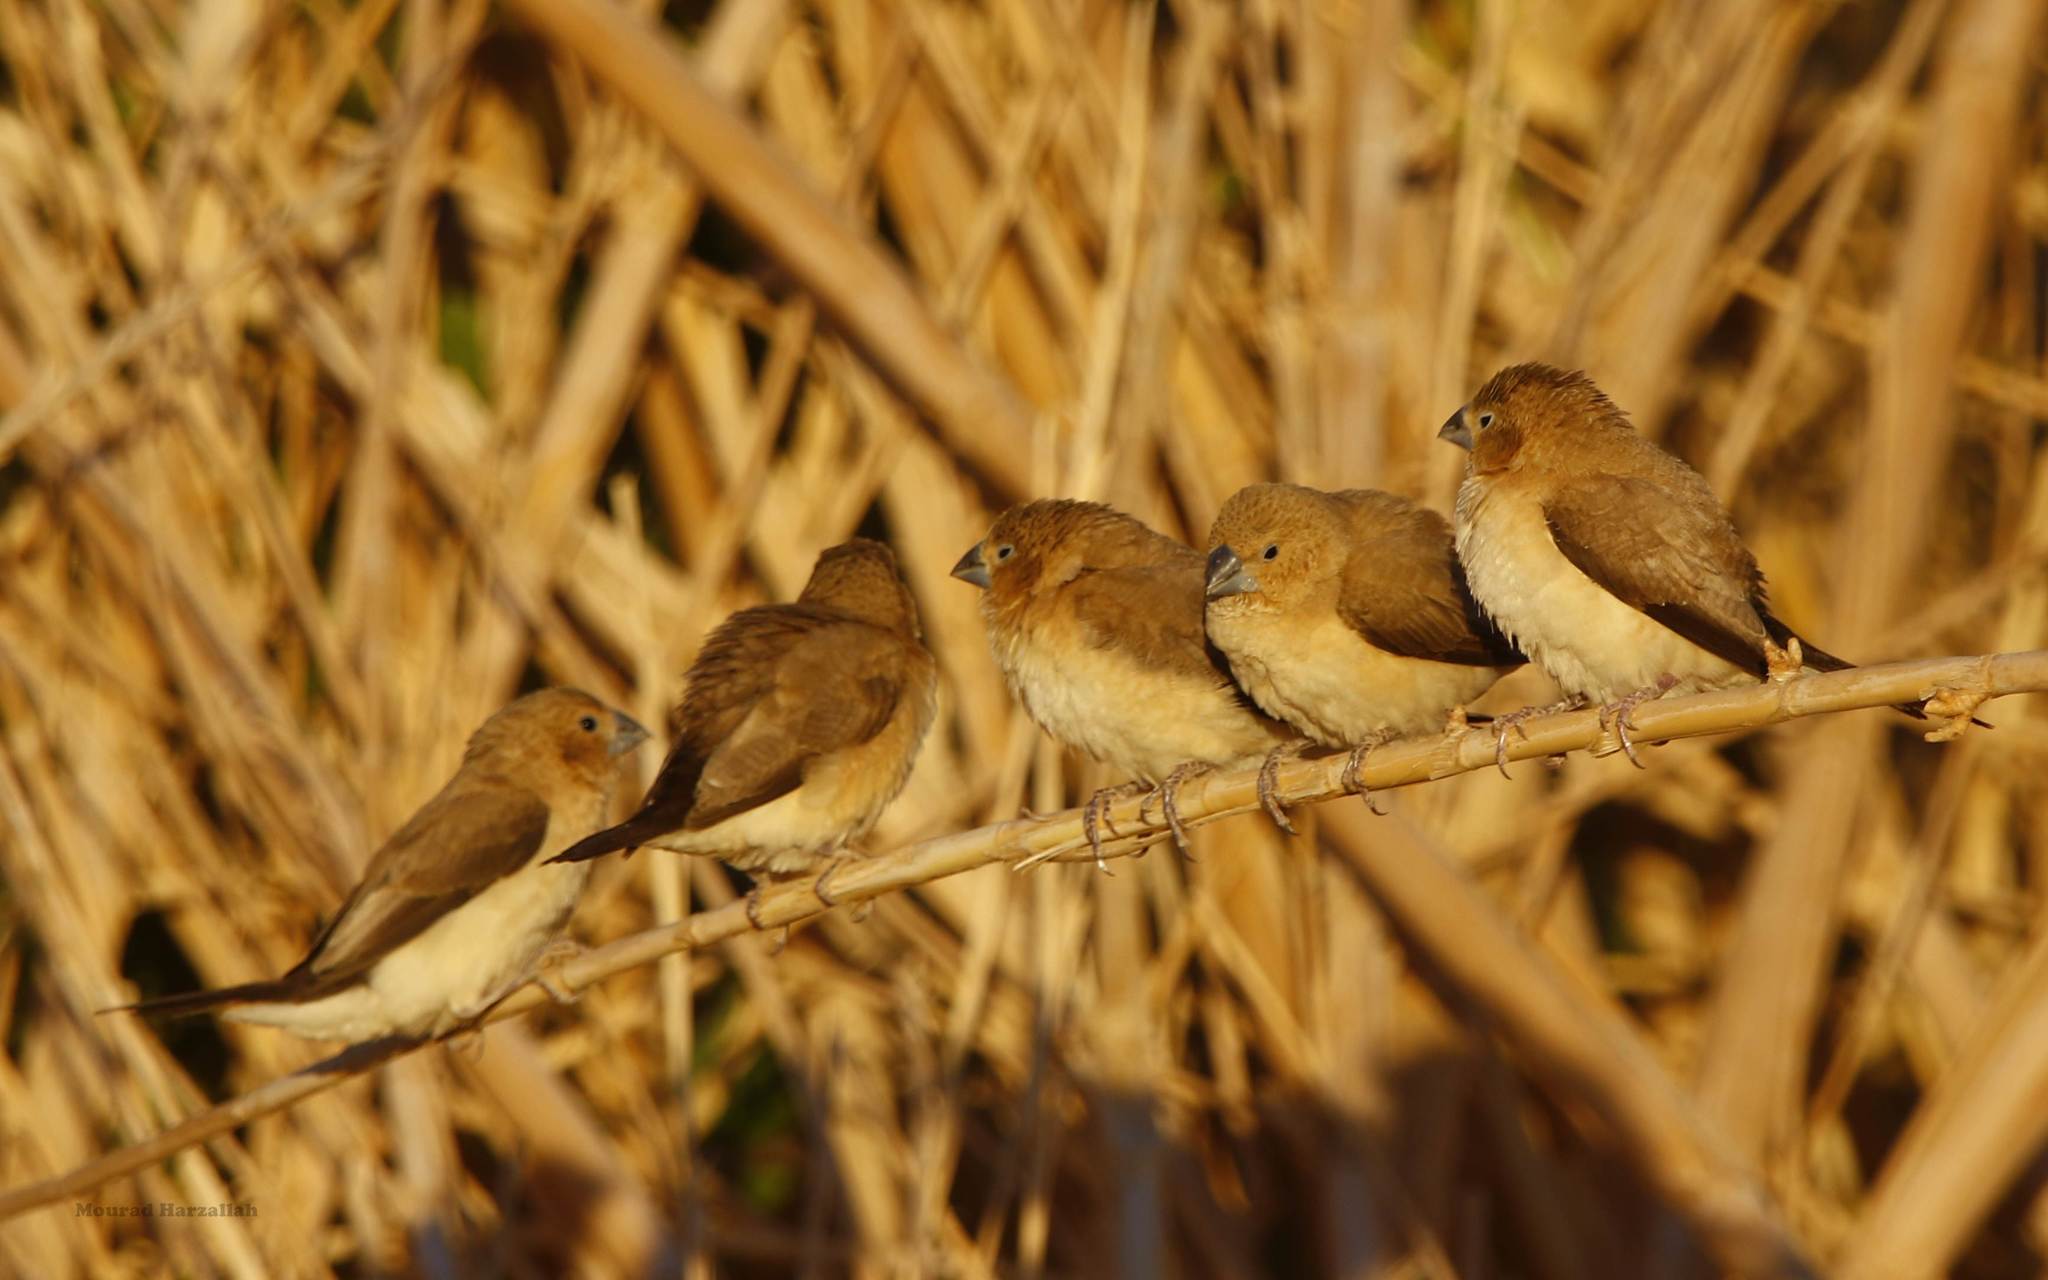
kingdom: Animalia
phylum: Chordata
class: Aves
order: Passeriformes
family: Estrildidae
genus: Euodice
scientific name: Euodice cantans
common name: African silverbill
